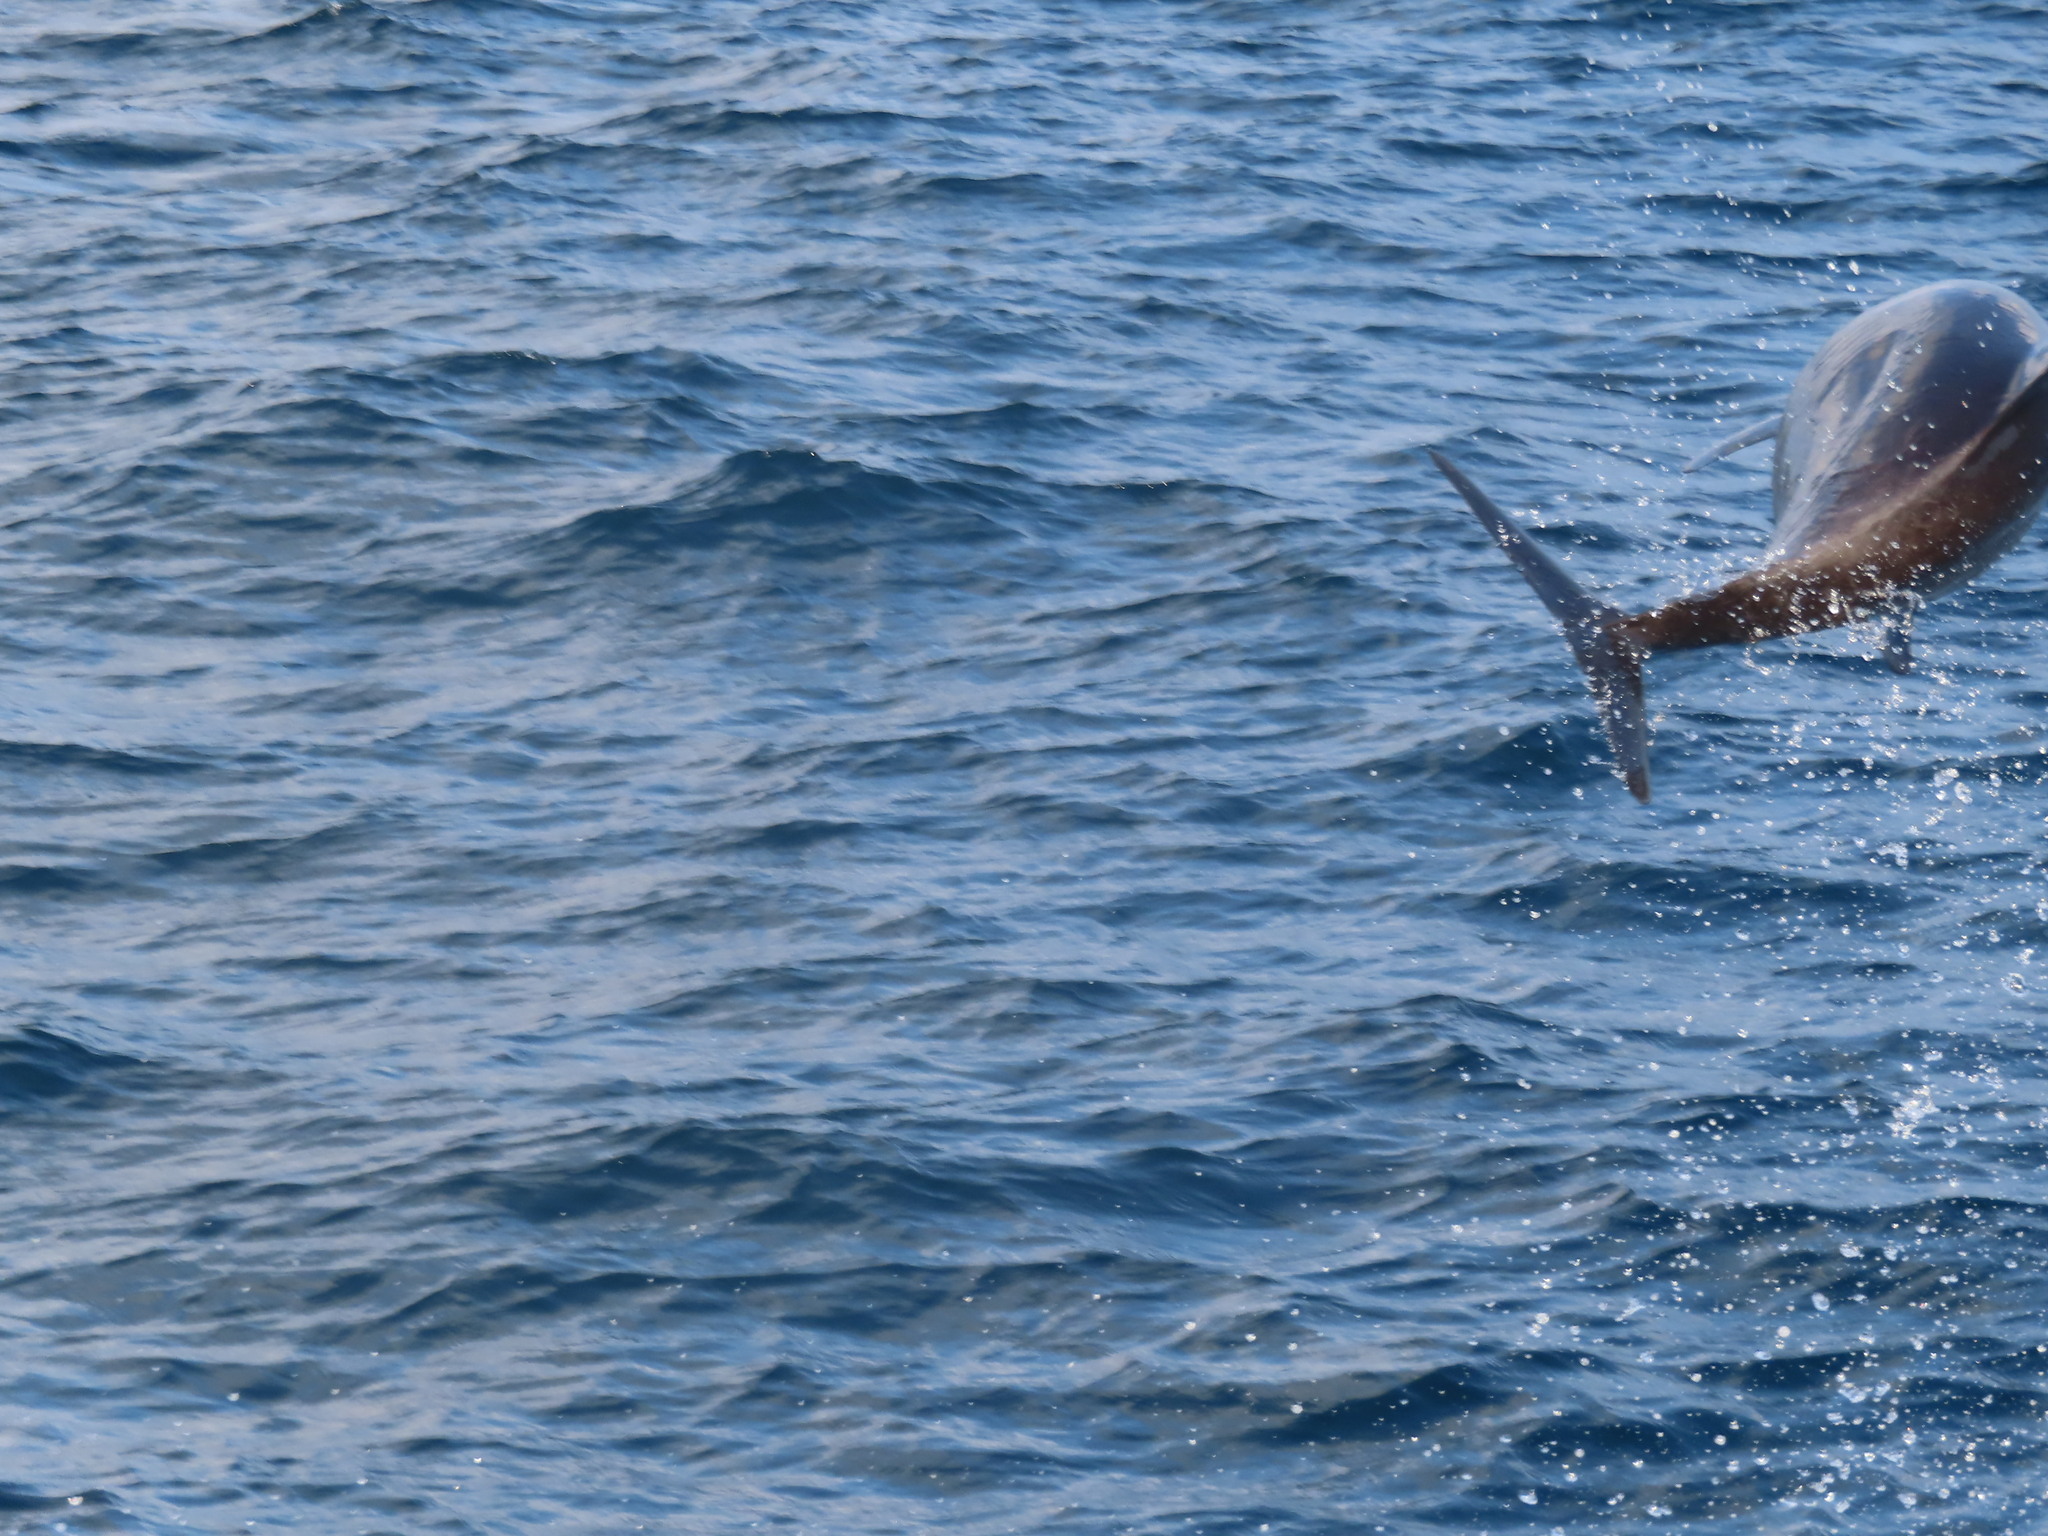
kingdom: Animalia
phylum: Chordata
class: Mammalia
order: Cetacea
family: Delphinidae
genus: Tursiops
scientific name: Tursiops aduncus
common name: Indo-pacific bottlenose dolphin
